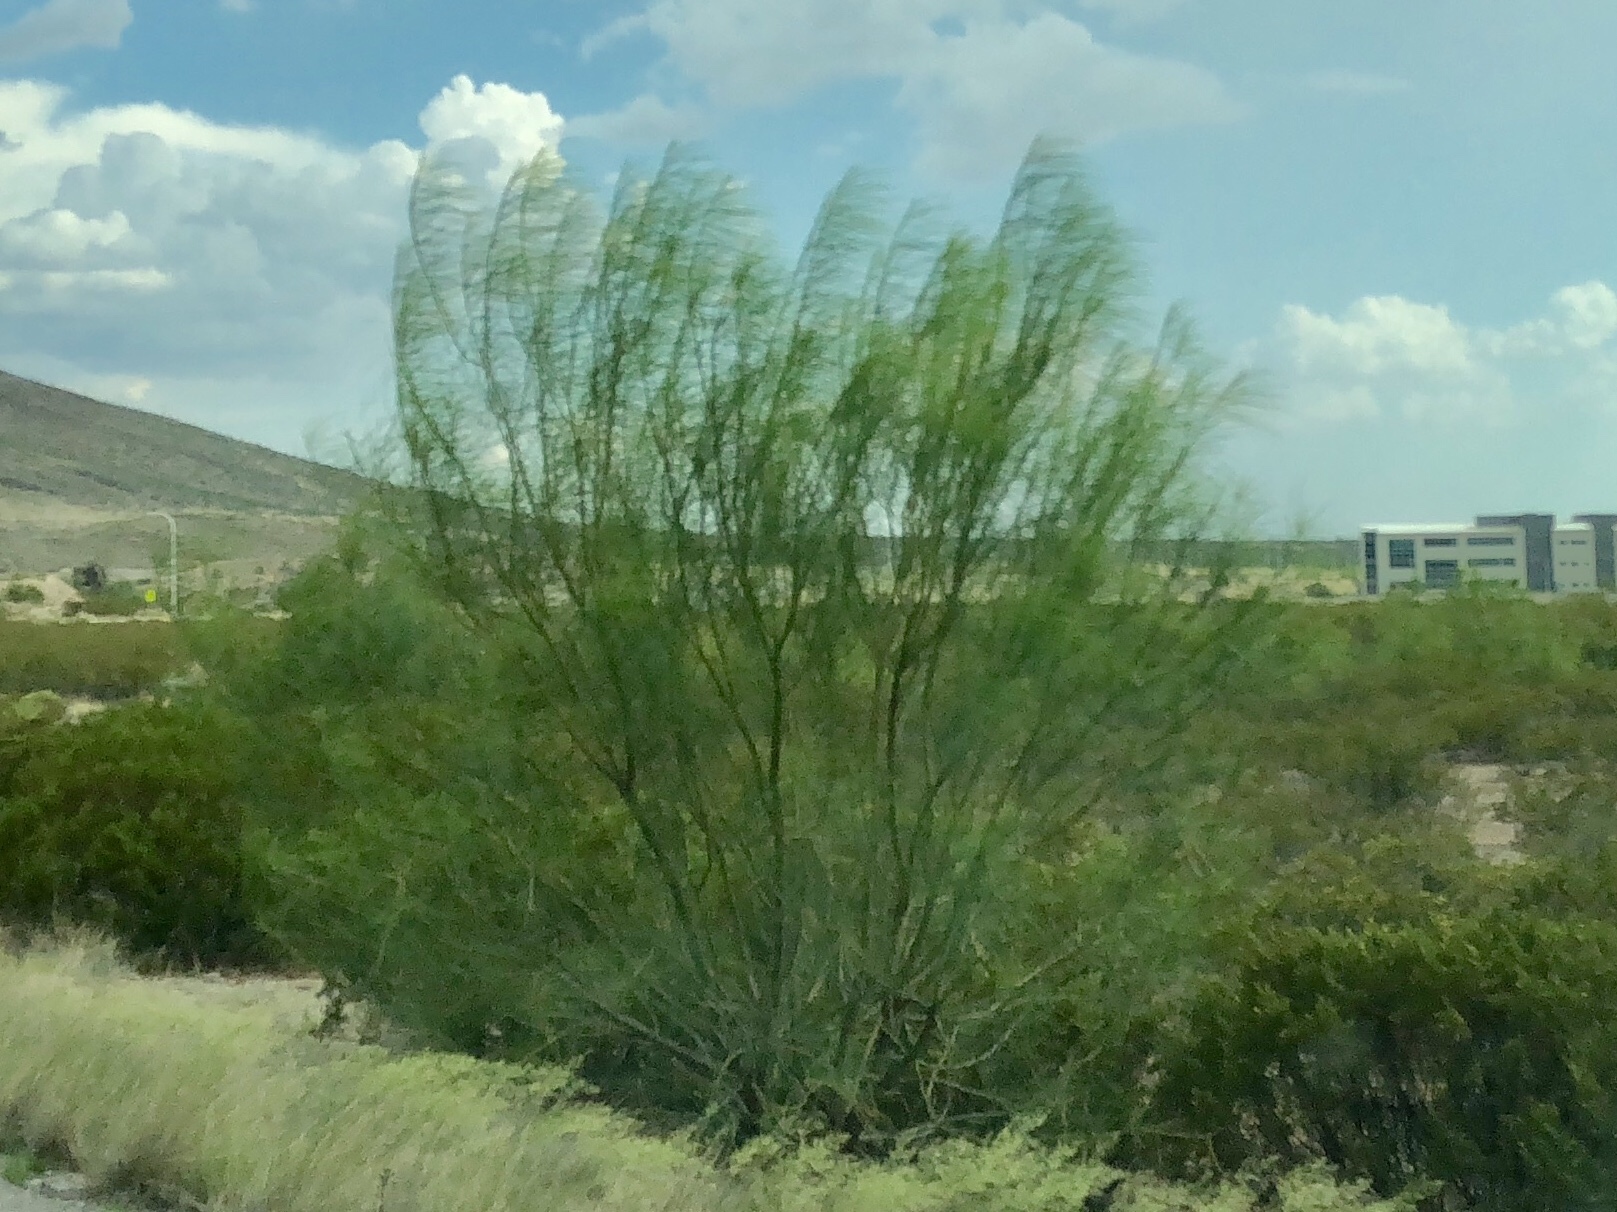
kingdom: Plantae
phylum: Tracheophyta
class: Magnoliopsida
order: Fabales
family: Fabaceae
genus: Parkinsonia
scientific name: Parkinsonia aculeata
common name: Jerusalem thorn
